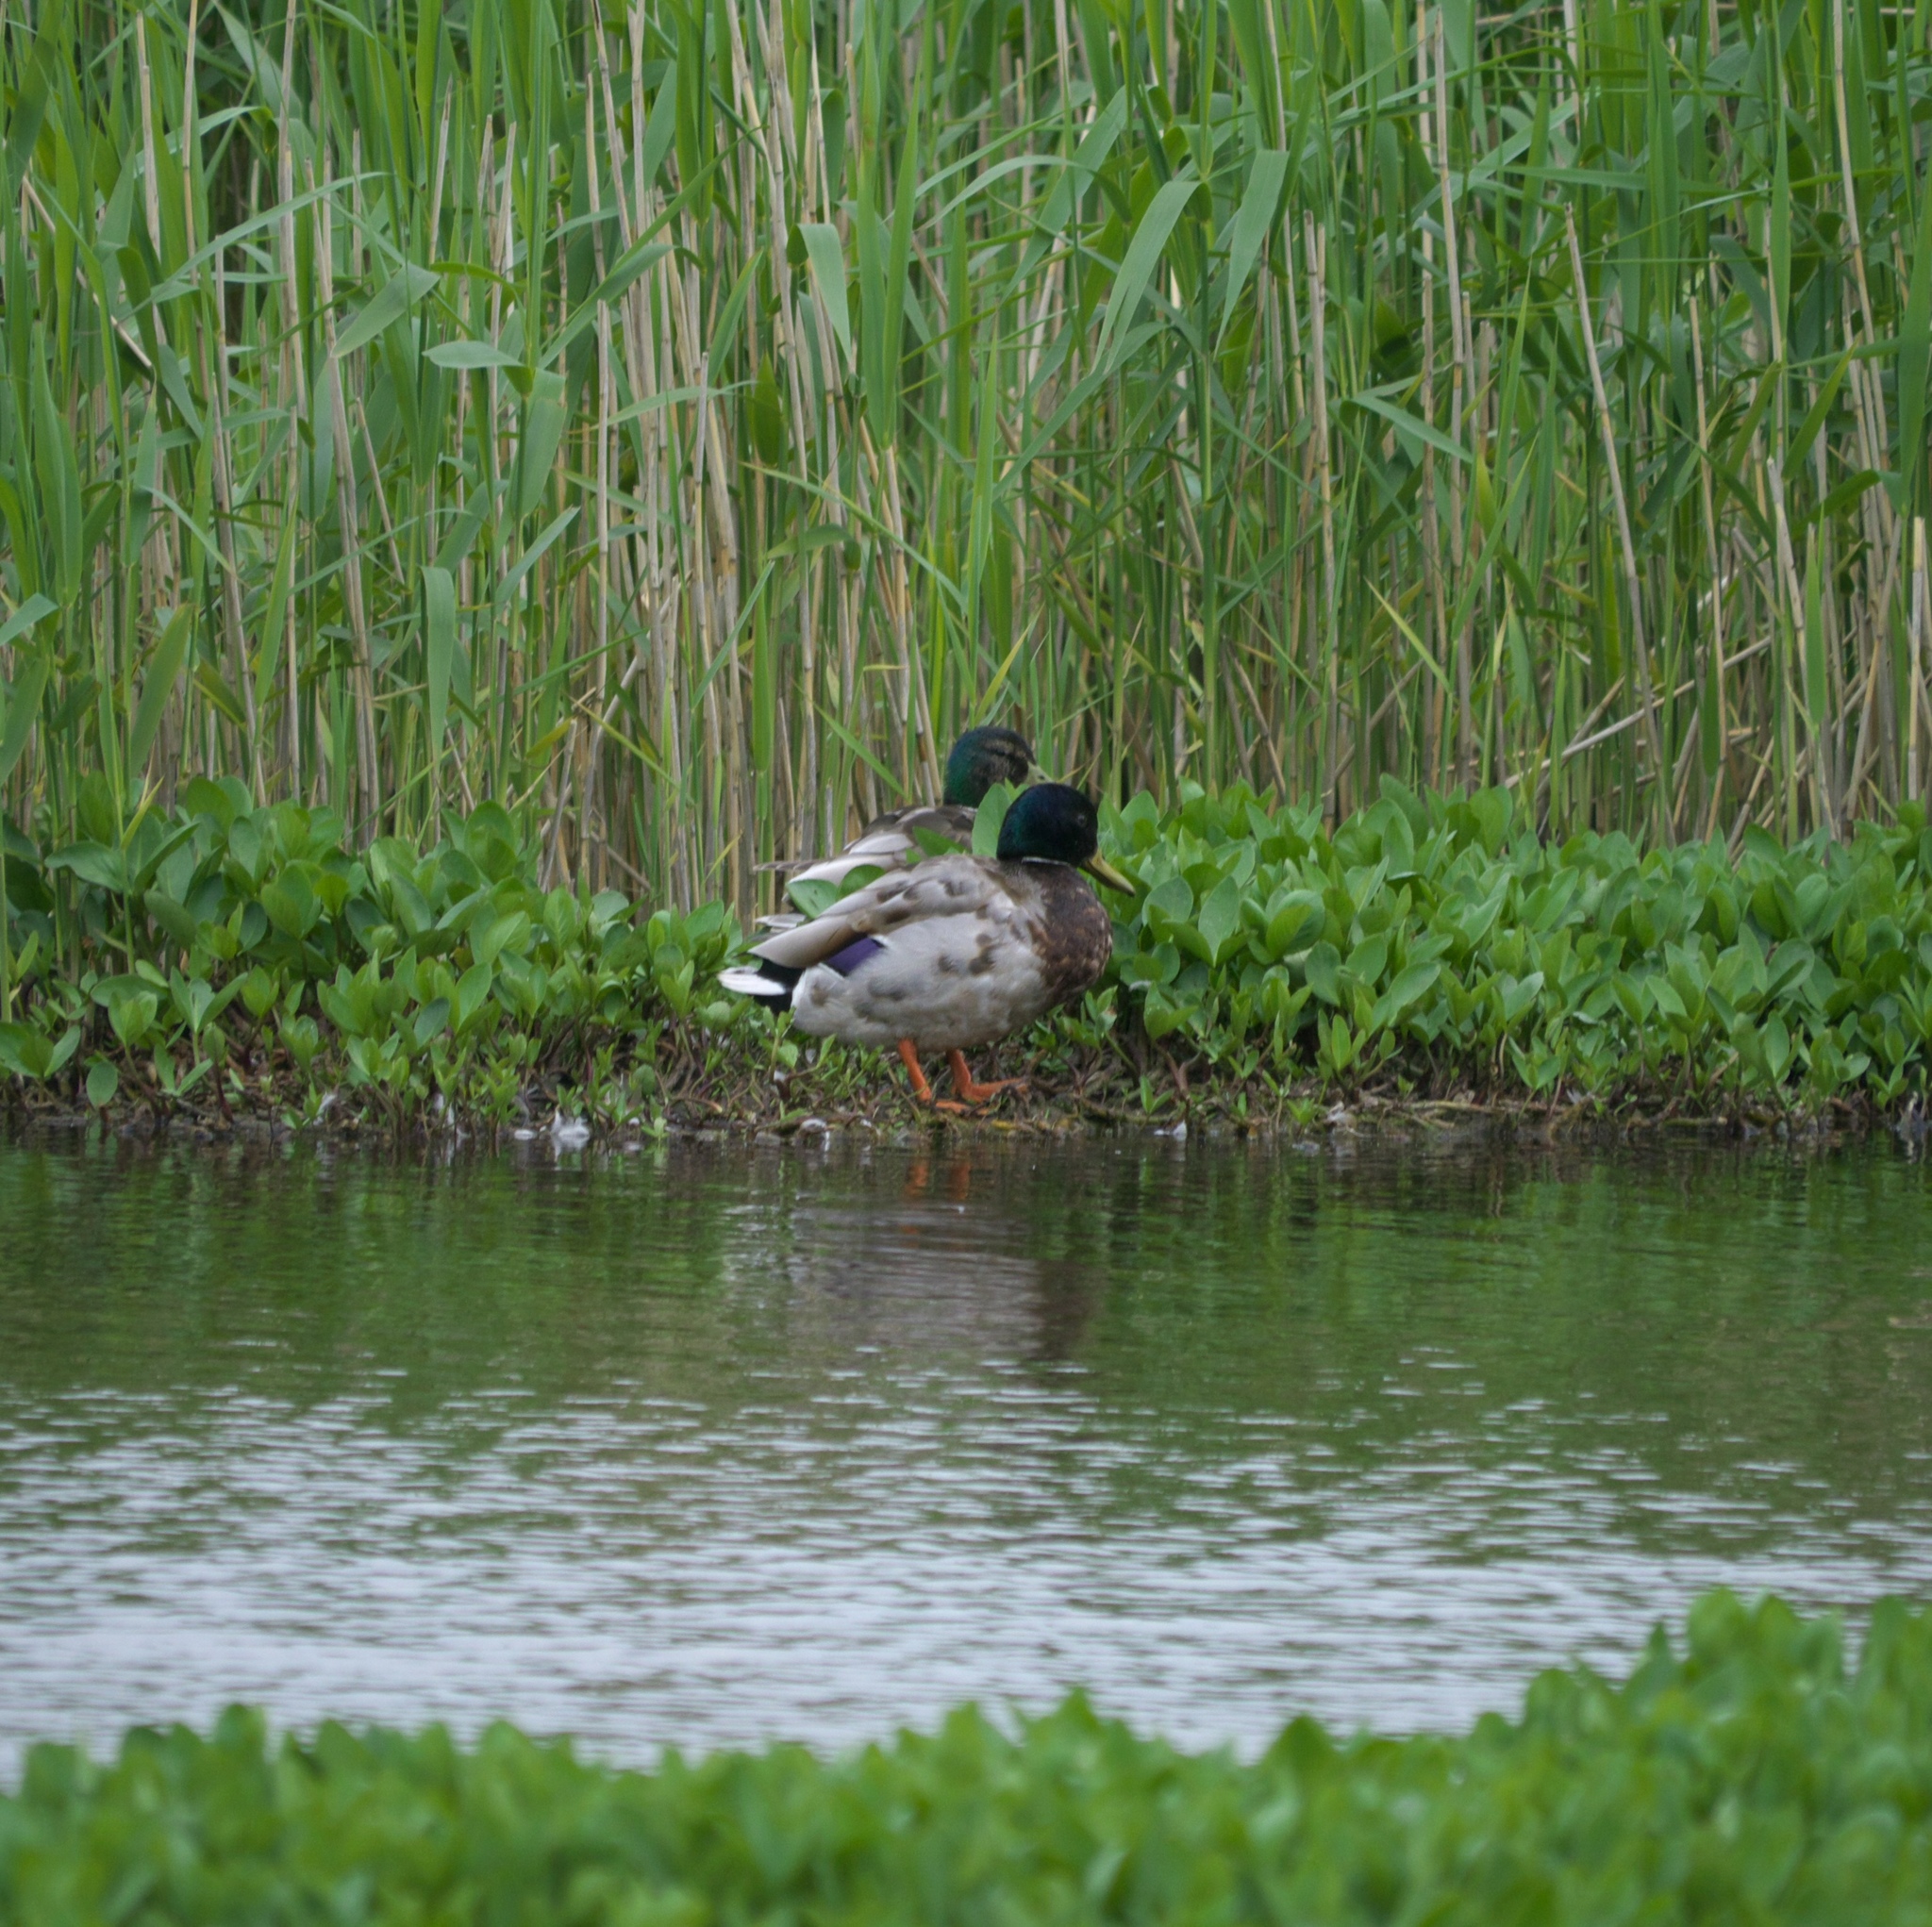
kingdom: Animalia
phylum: Chordata
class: Aves
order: Anseriformes
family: Anatidae
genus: Anas
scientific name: Anas platyrhynchos
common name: Mallard
